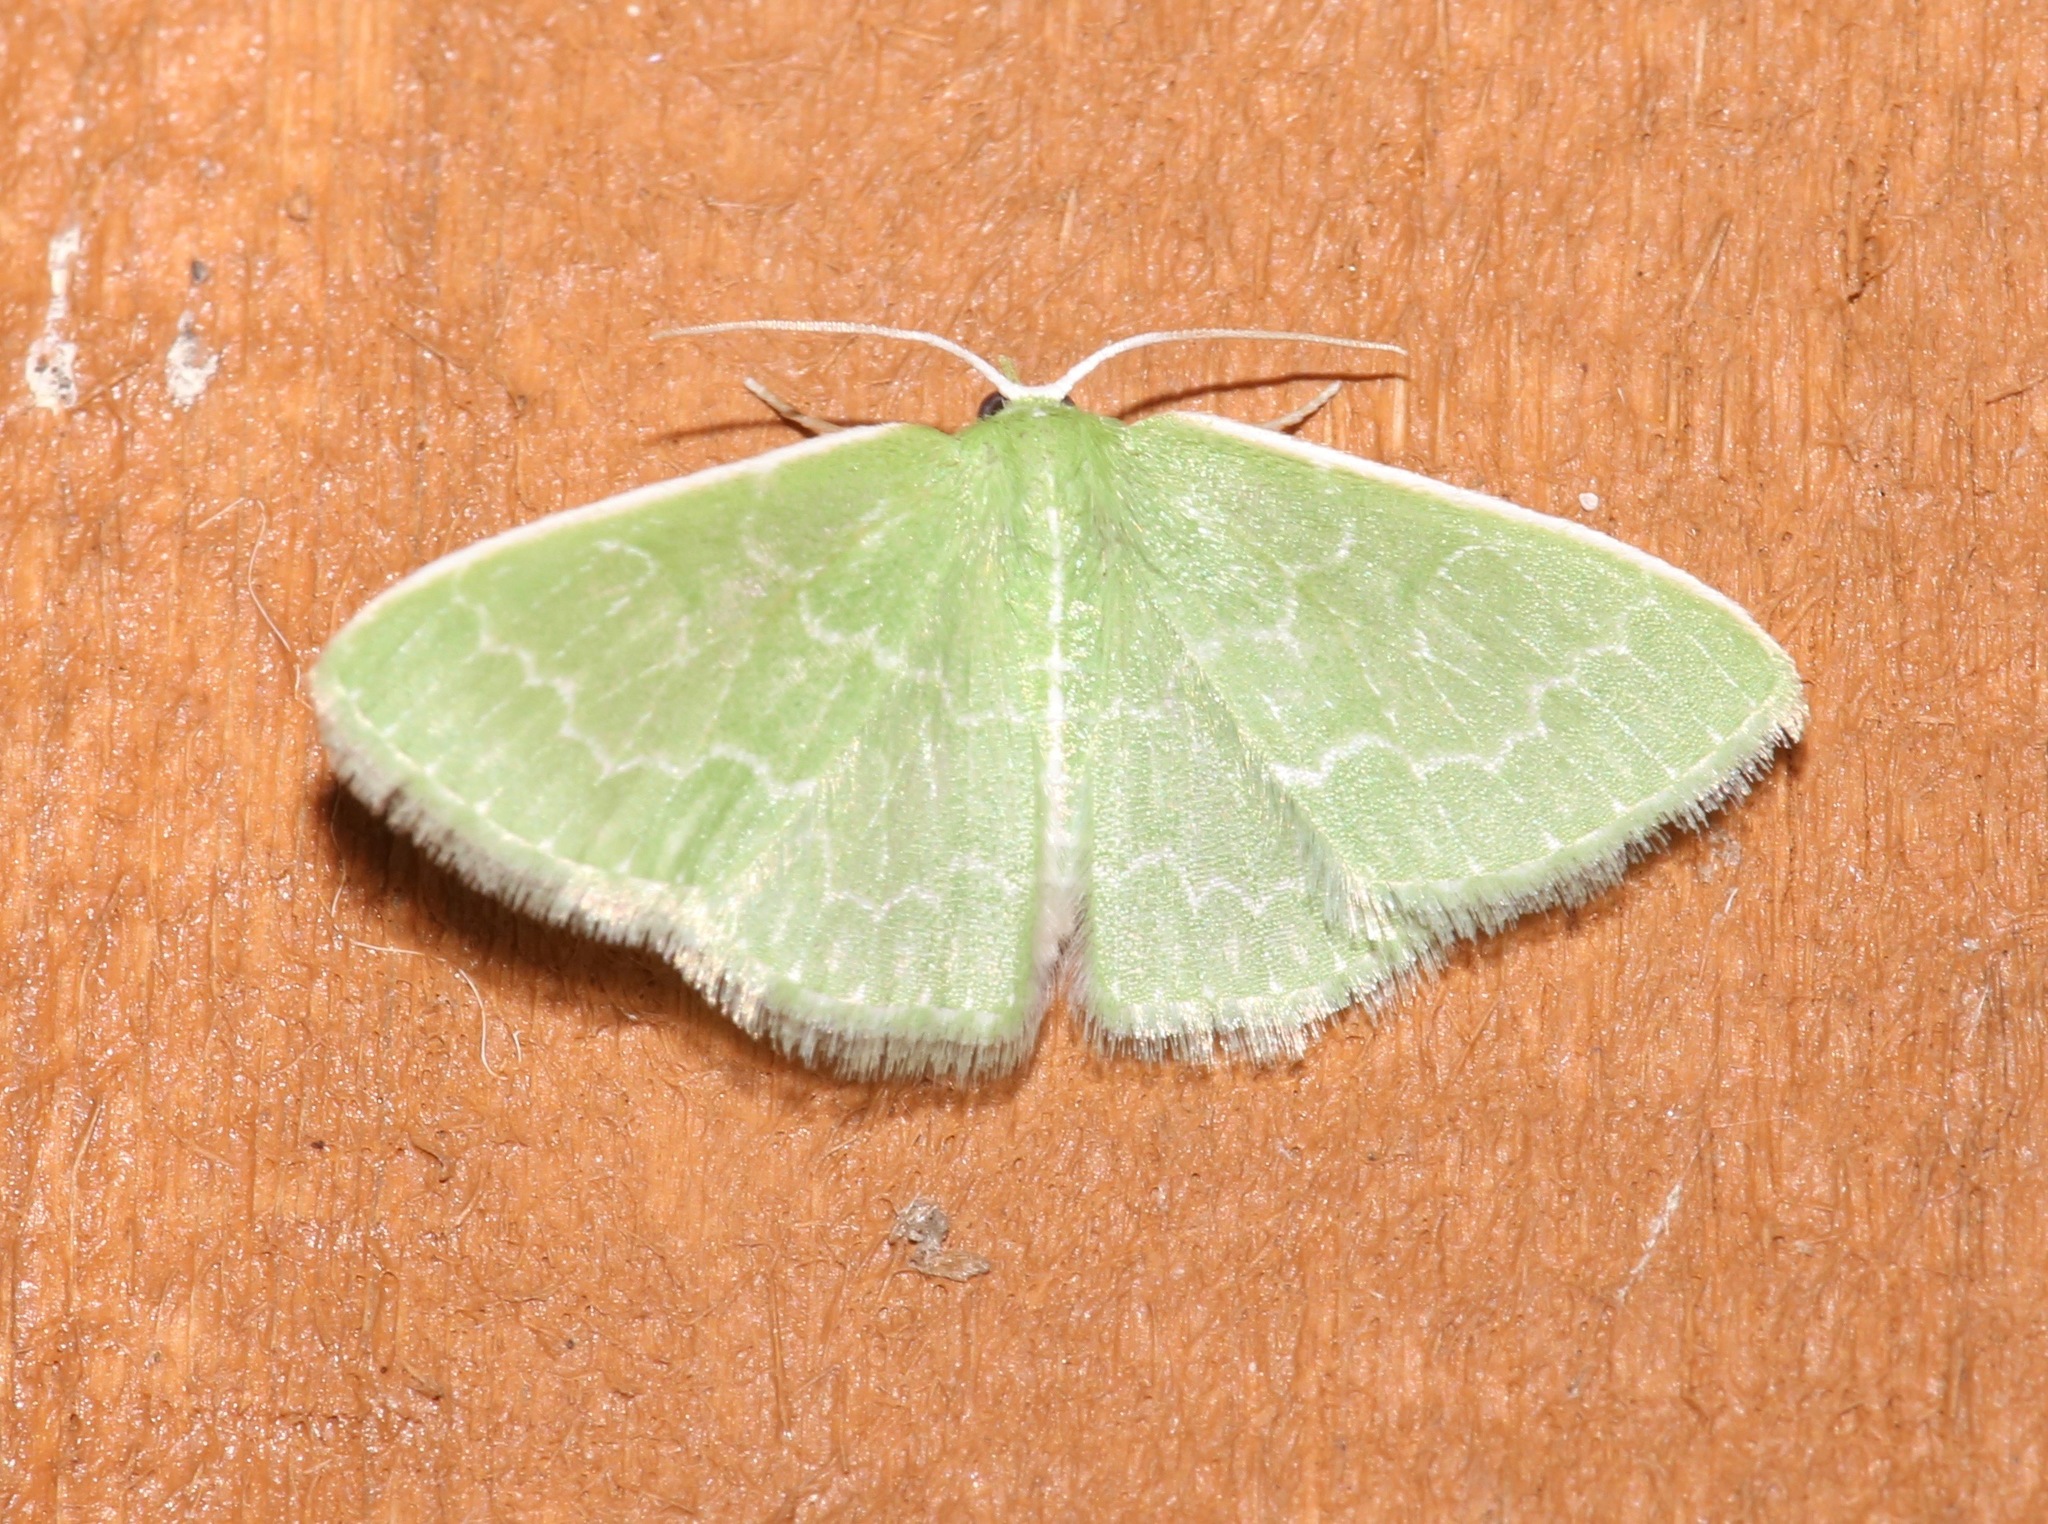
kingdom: Animalia
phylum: Arthropoda
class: Insecta
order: Lepidoptera
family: Geometridae
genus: Synchlora
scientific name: Synchlora frondaria
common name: Southern emerald
